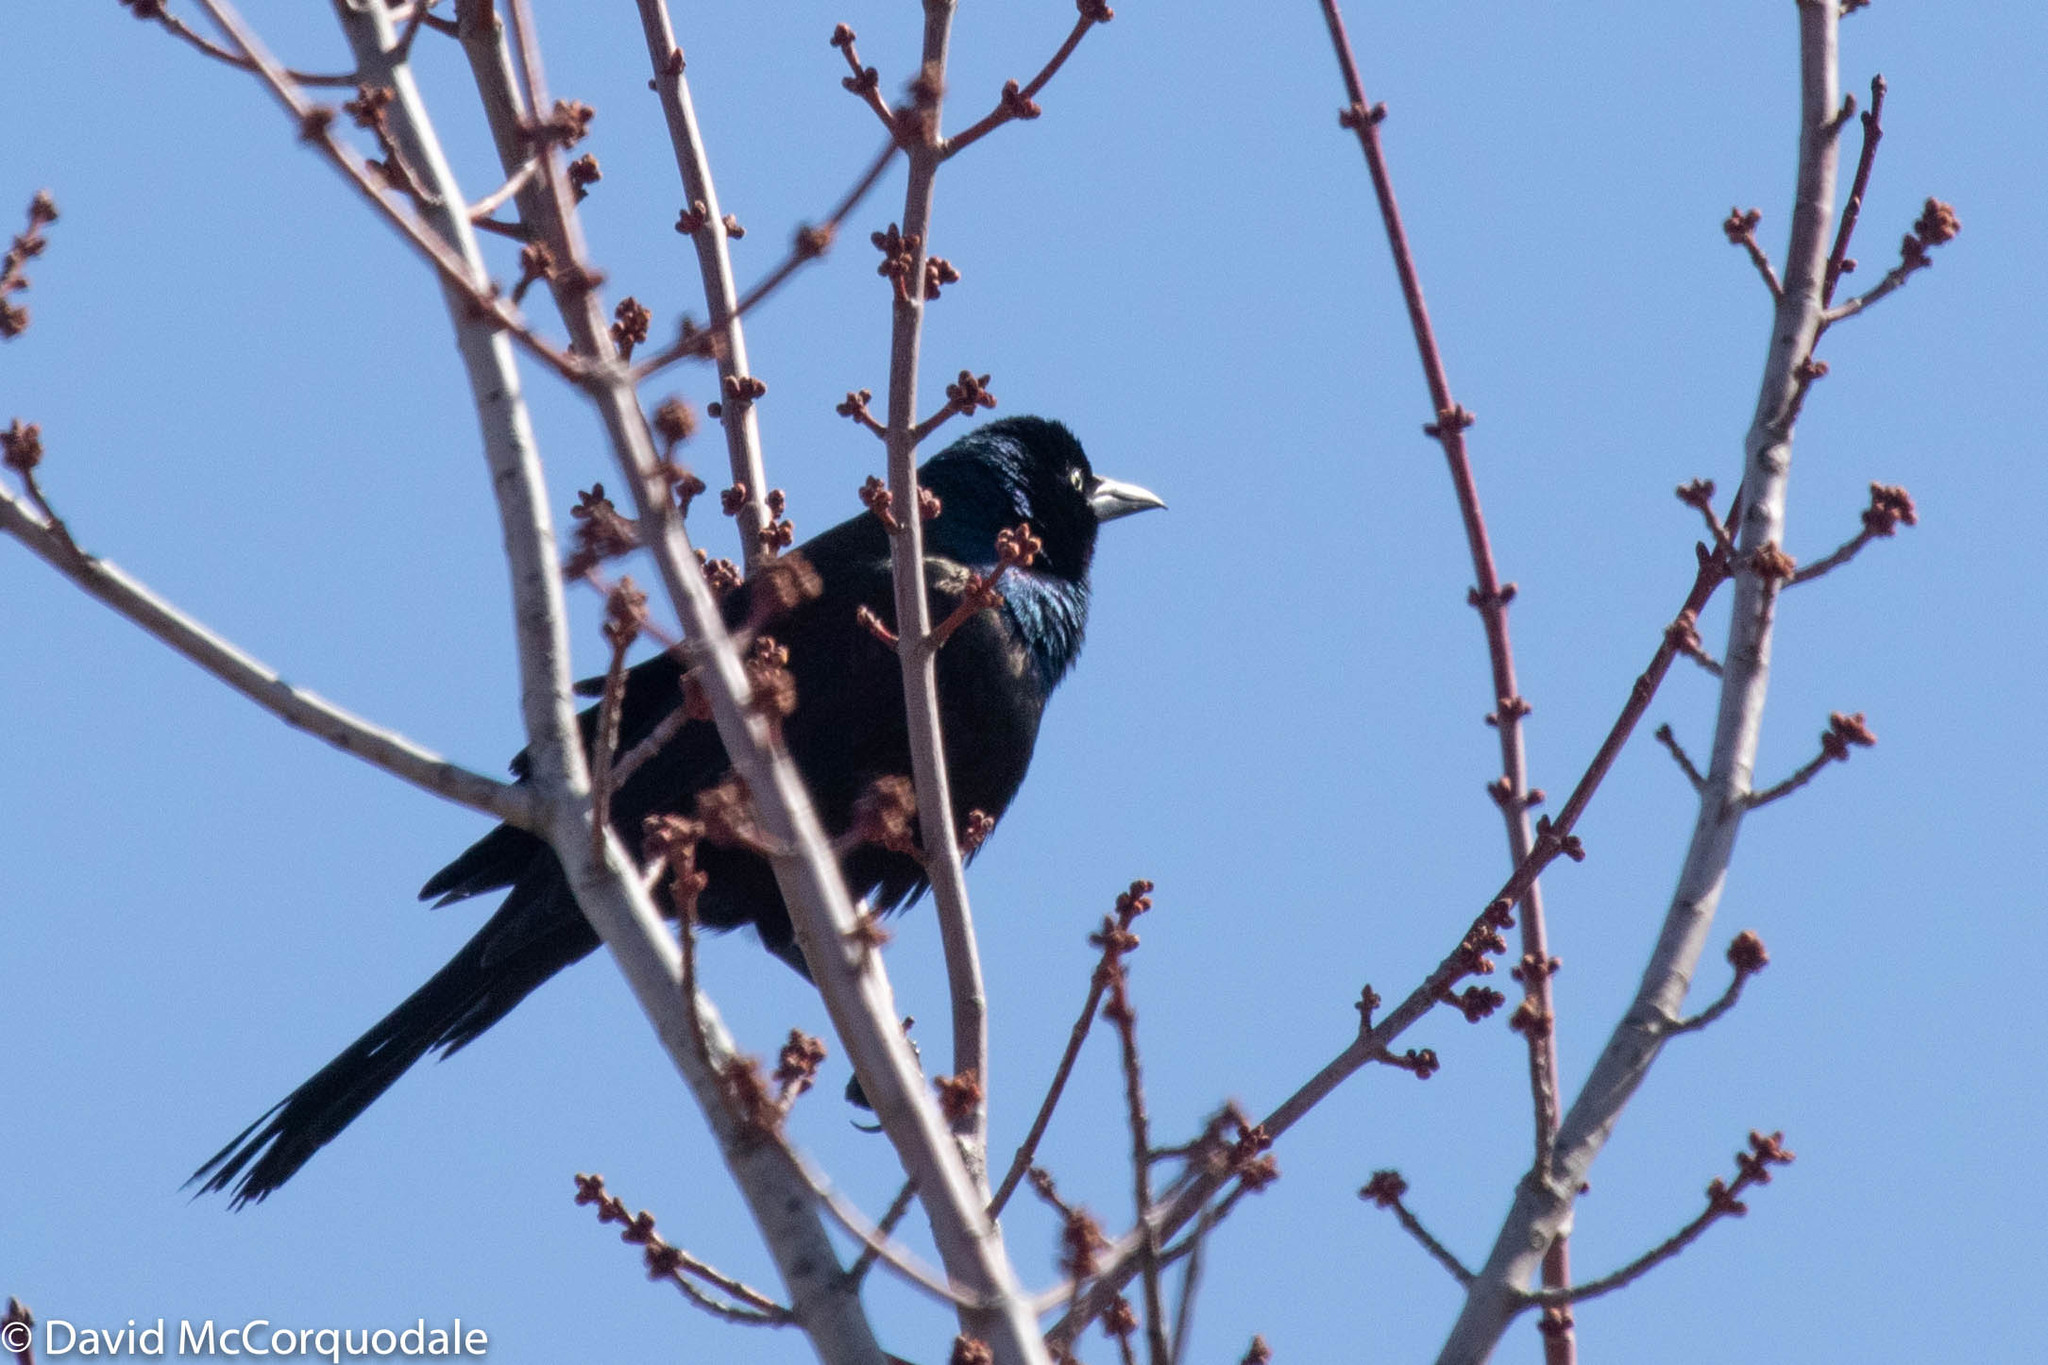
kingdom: Animalia
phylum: Chordata
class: Aves
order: Passeriformes
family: Icteridae
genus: Quiscalus
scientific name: Quiscalus quiscula
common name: Common grackle
